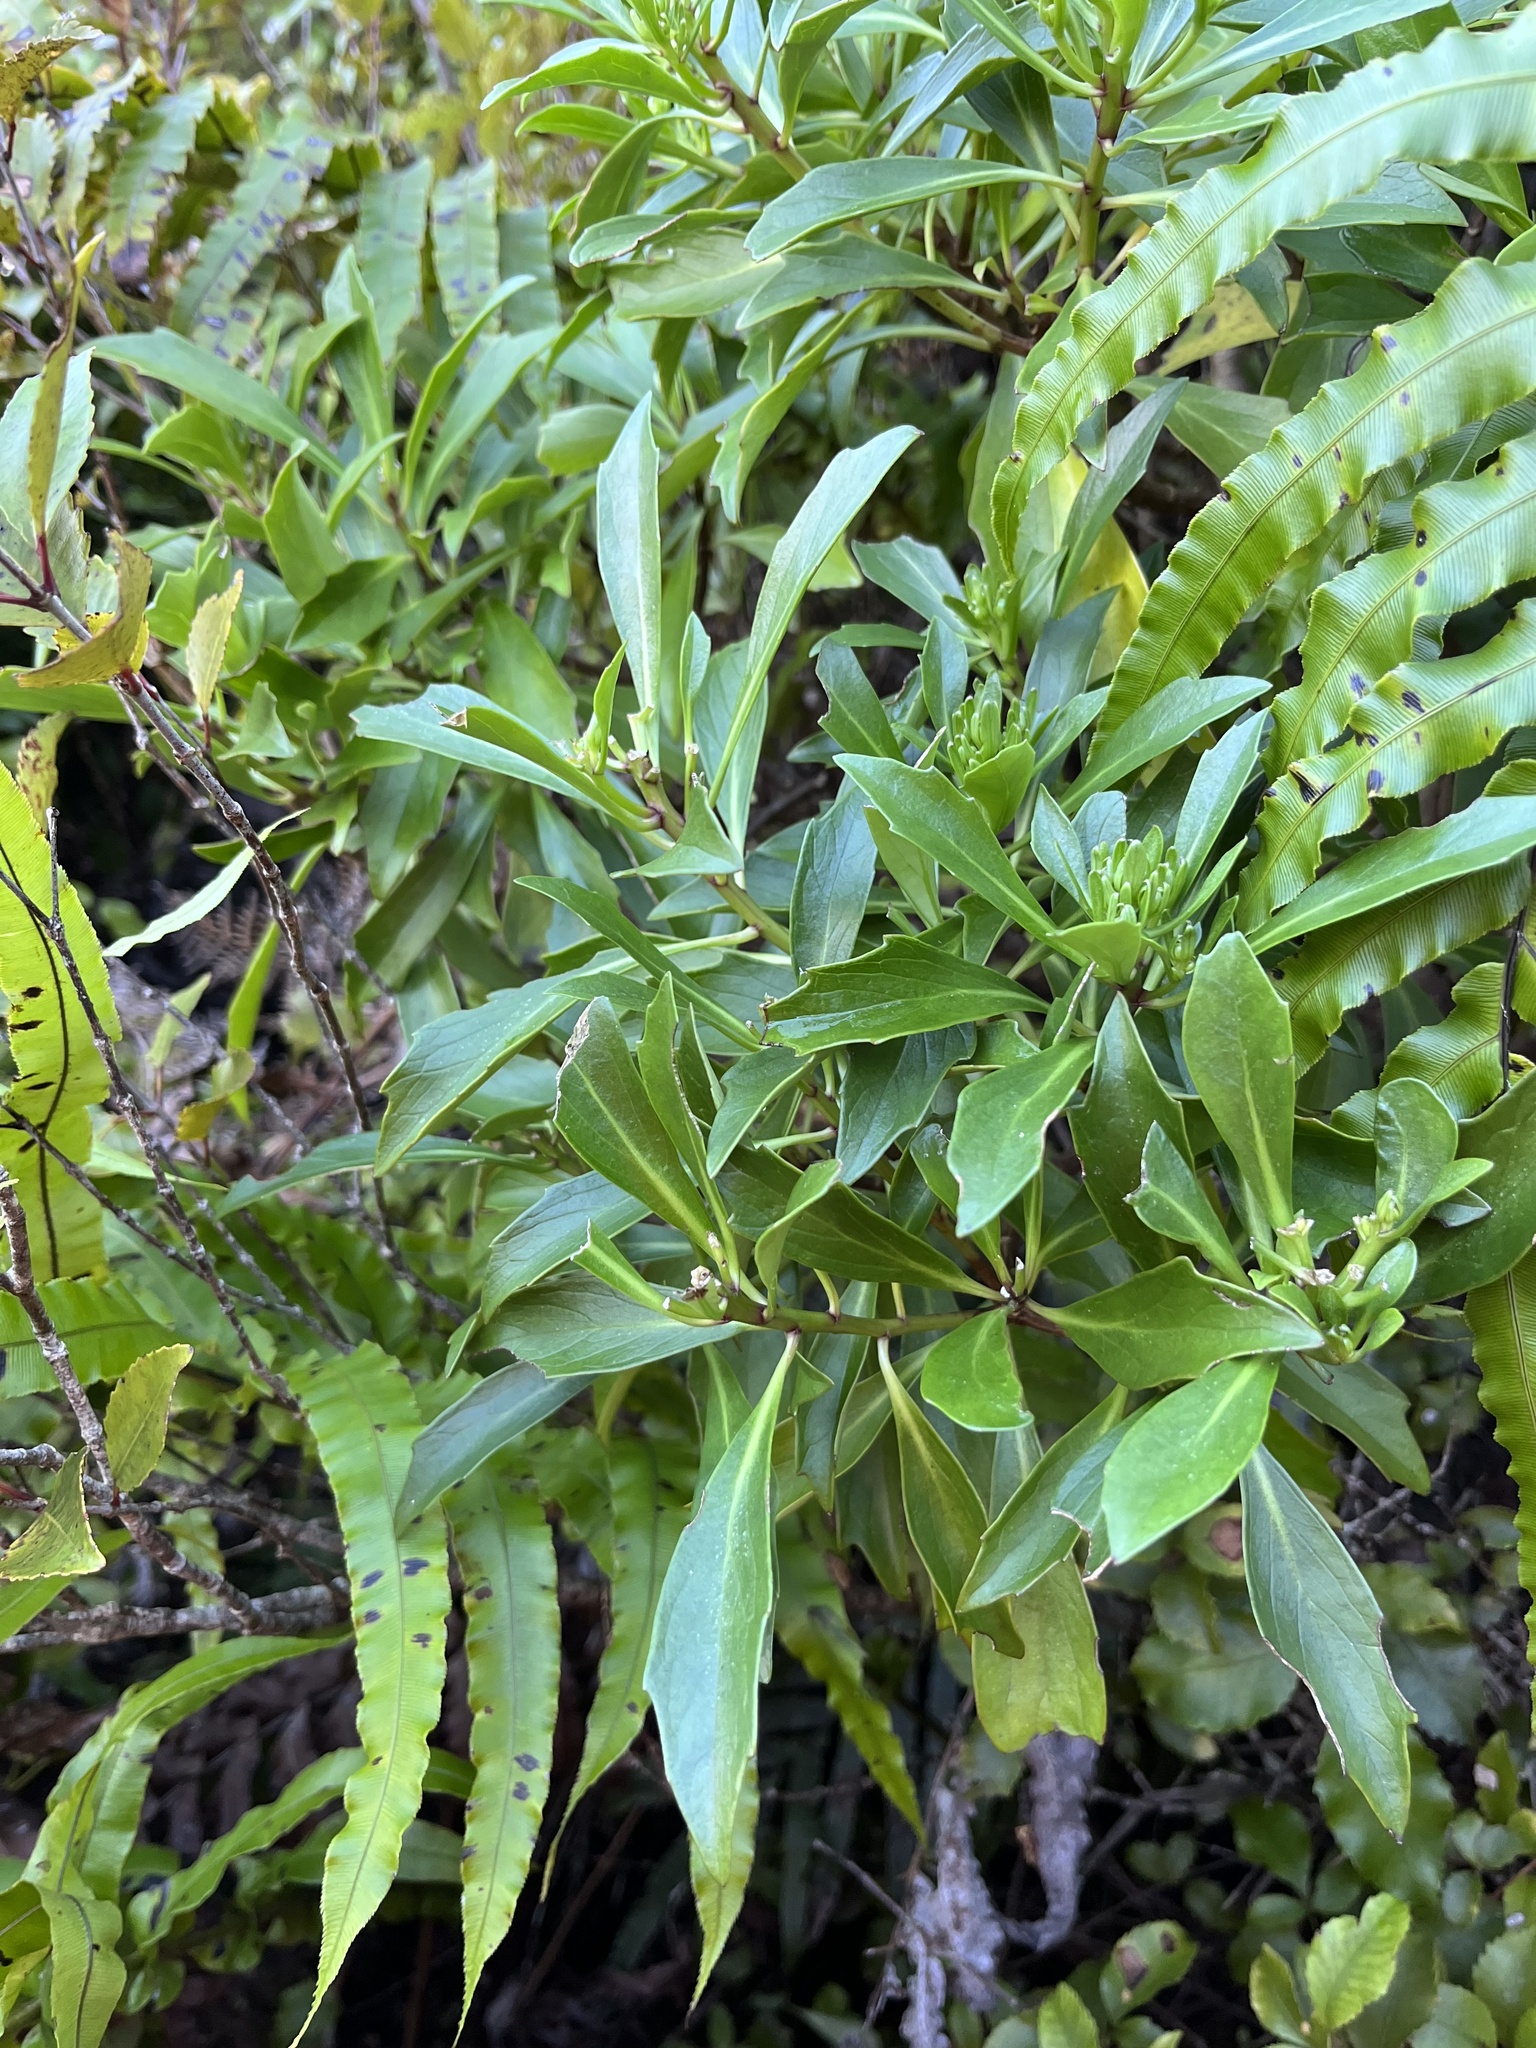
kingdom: Plantae
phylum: Tracheophyta
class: Magnoliopsida
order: Asterales
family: Asteraceae
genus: Brachyglottis
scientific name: Brachyglottis kirkii
